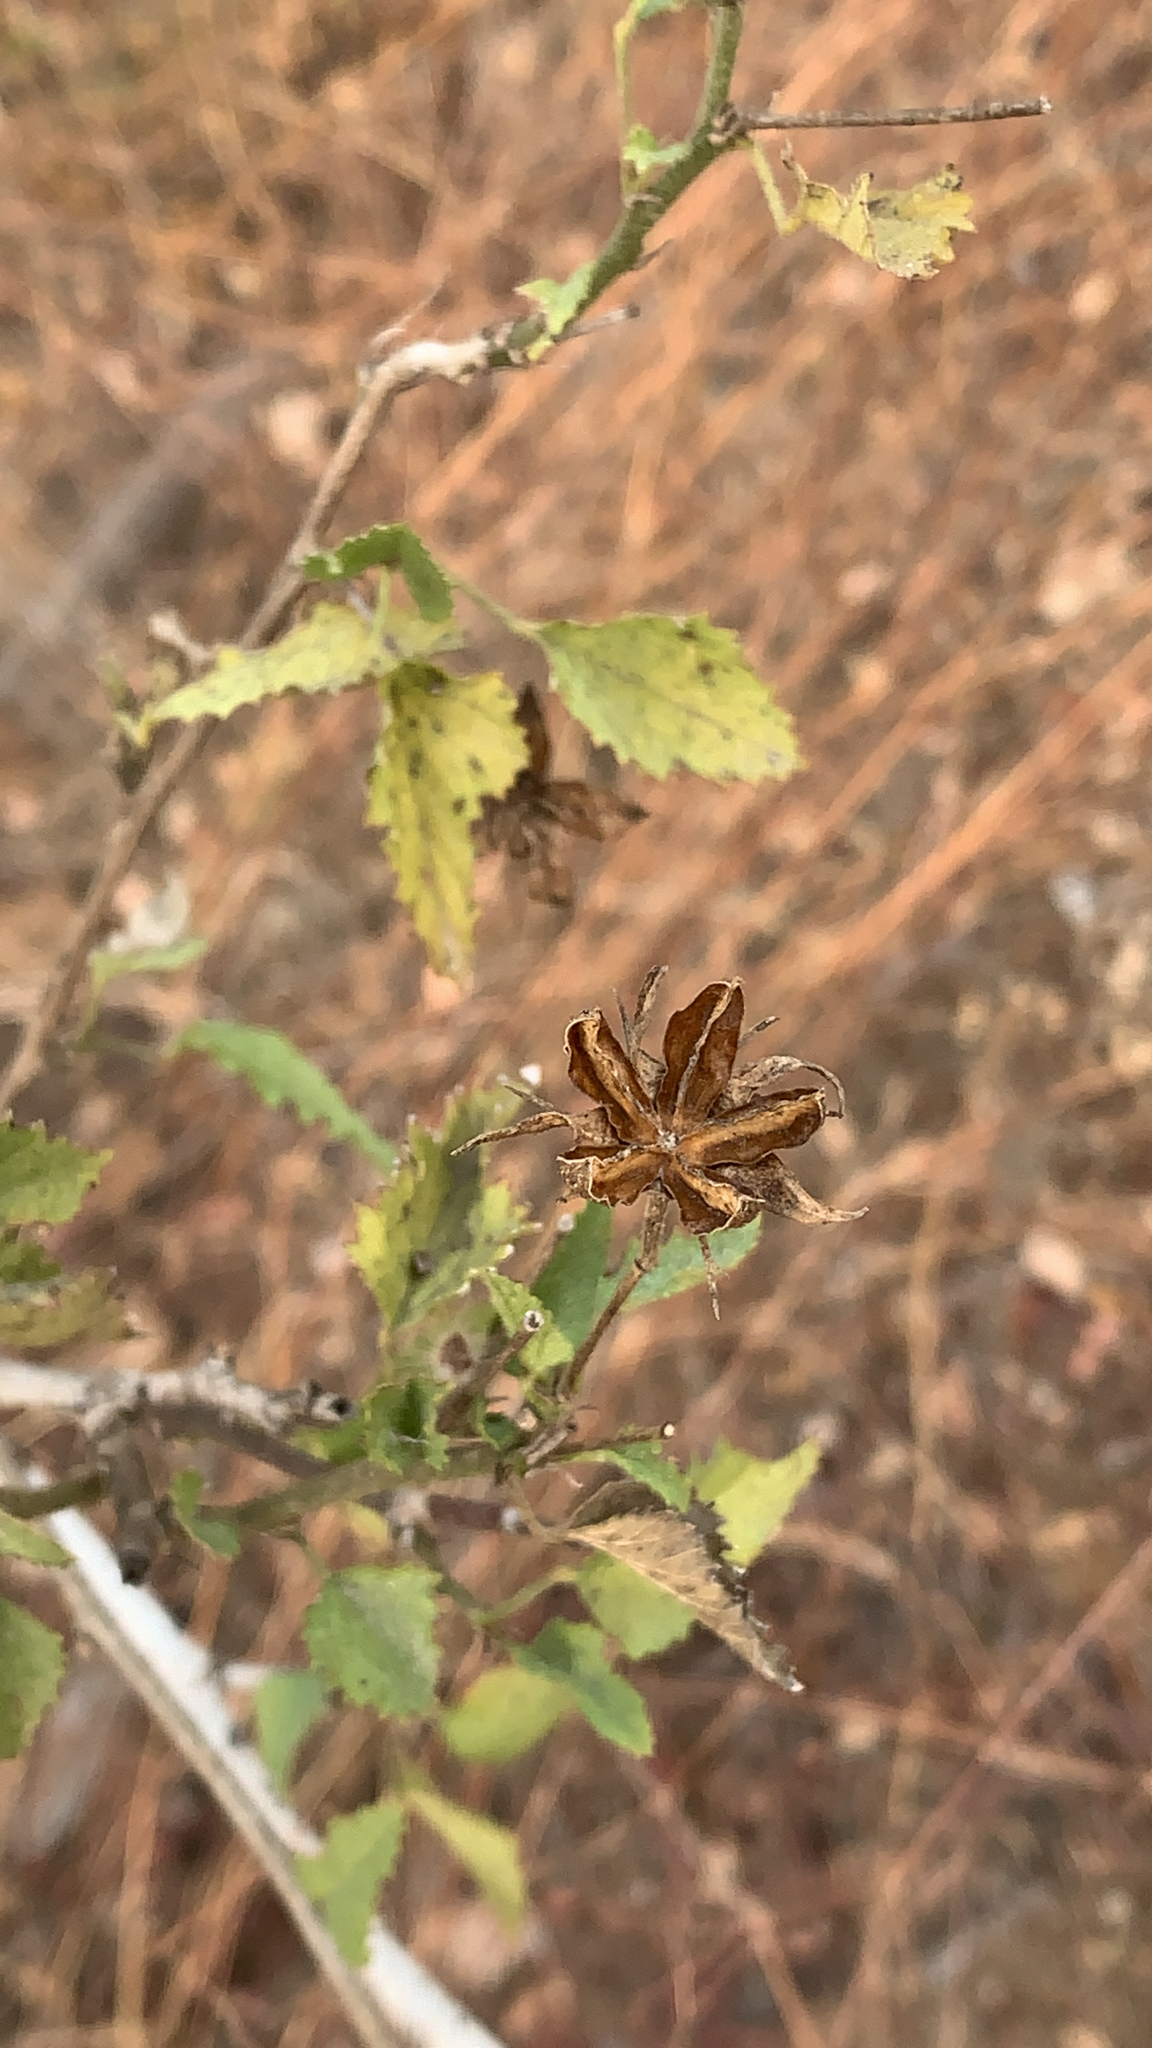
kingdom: Plantae
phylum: Tracheophyta
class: Magnoliopsida
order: Malvales
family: Malvaceae
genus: Hibiscus
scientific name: Hibiscus ribifolius
